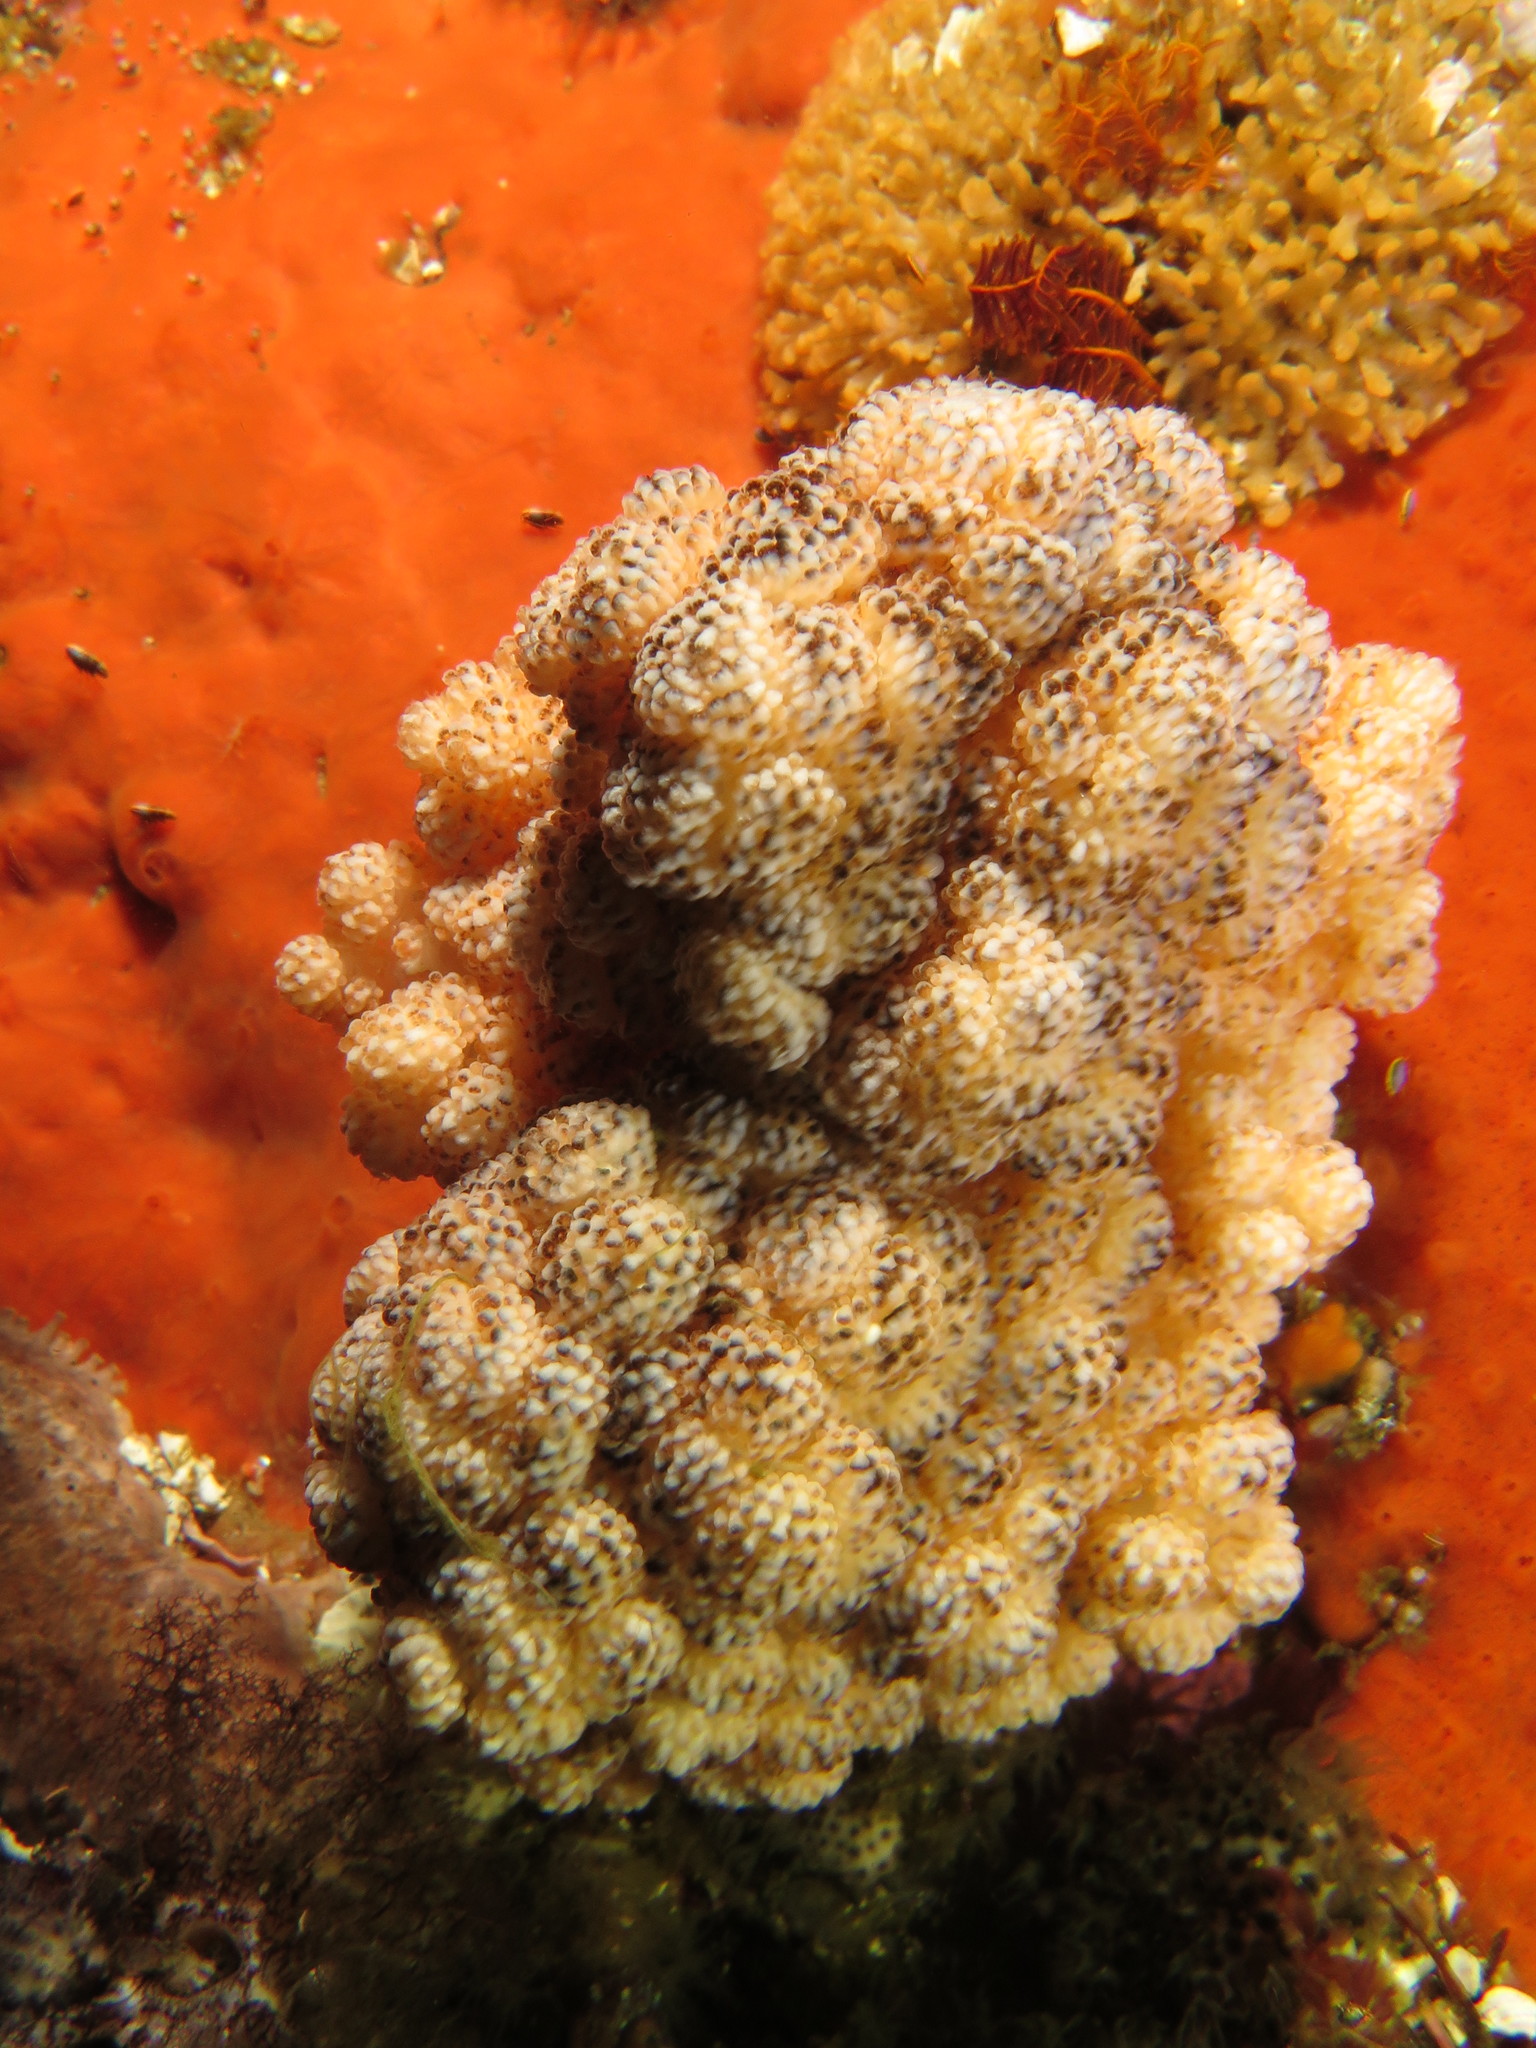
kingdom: Animalia
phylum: Cnidaria
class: Anthozoa
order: Malacalcyonacea
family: Capnellidae
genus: Eunephthya
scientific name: Eunephthya thyrsoidea
